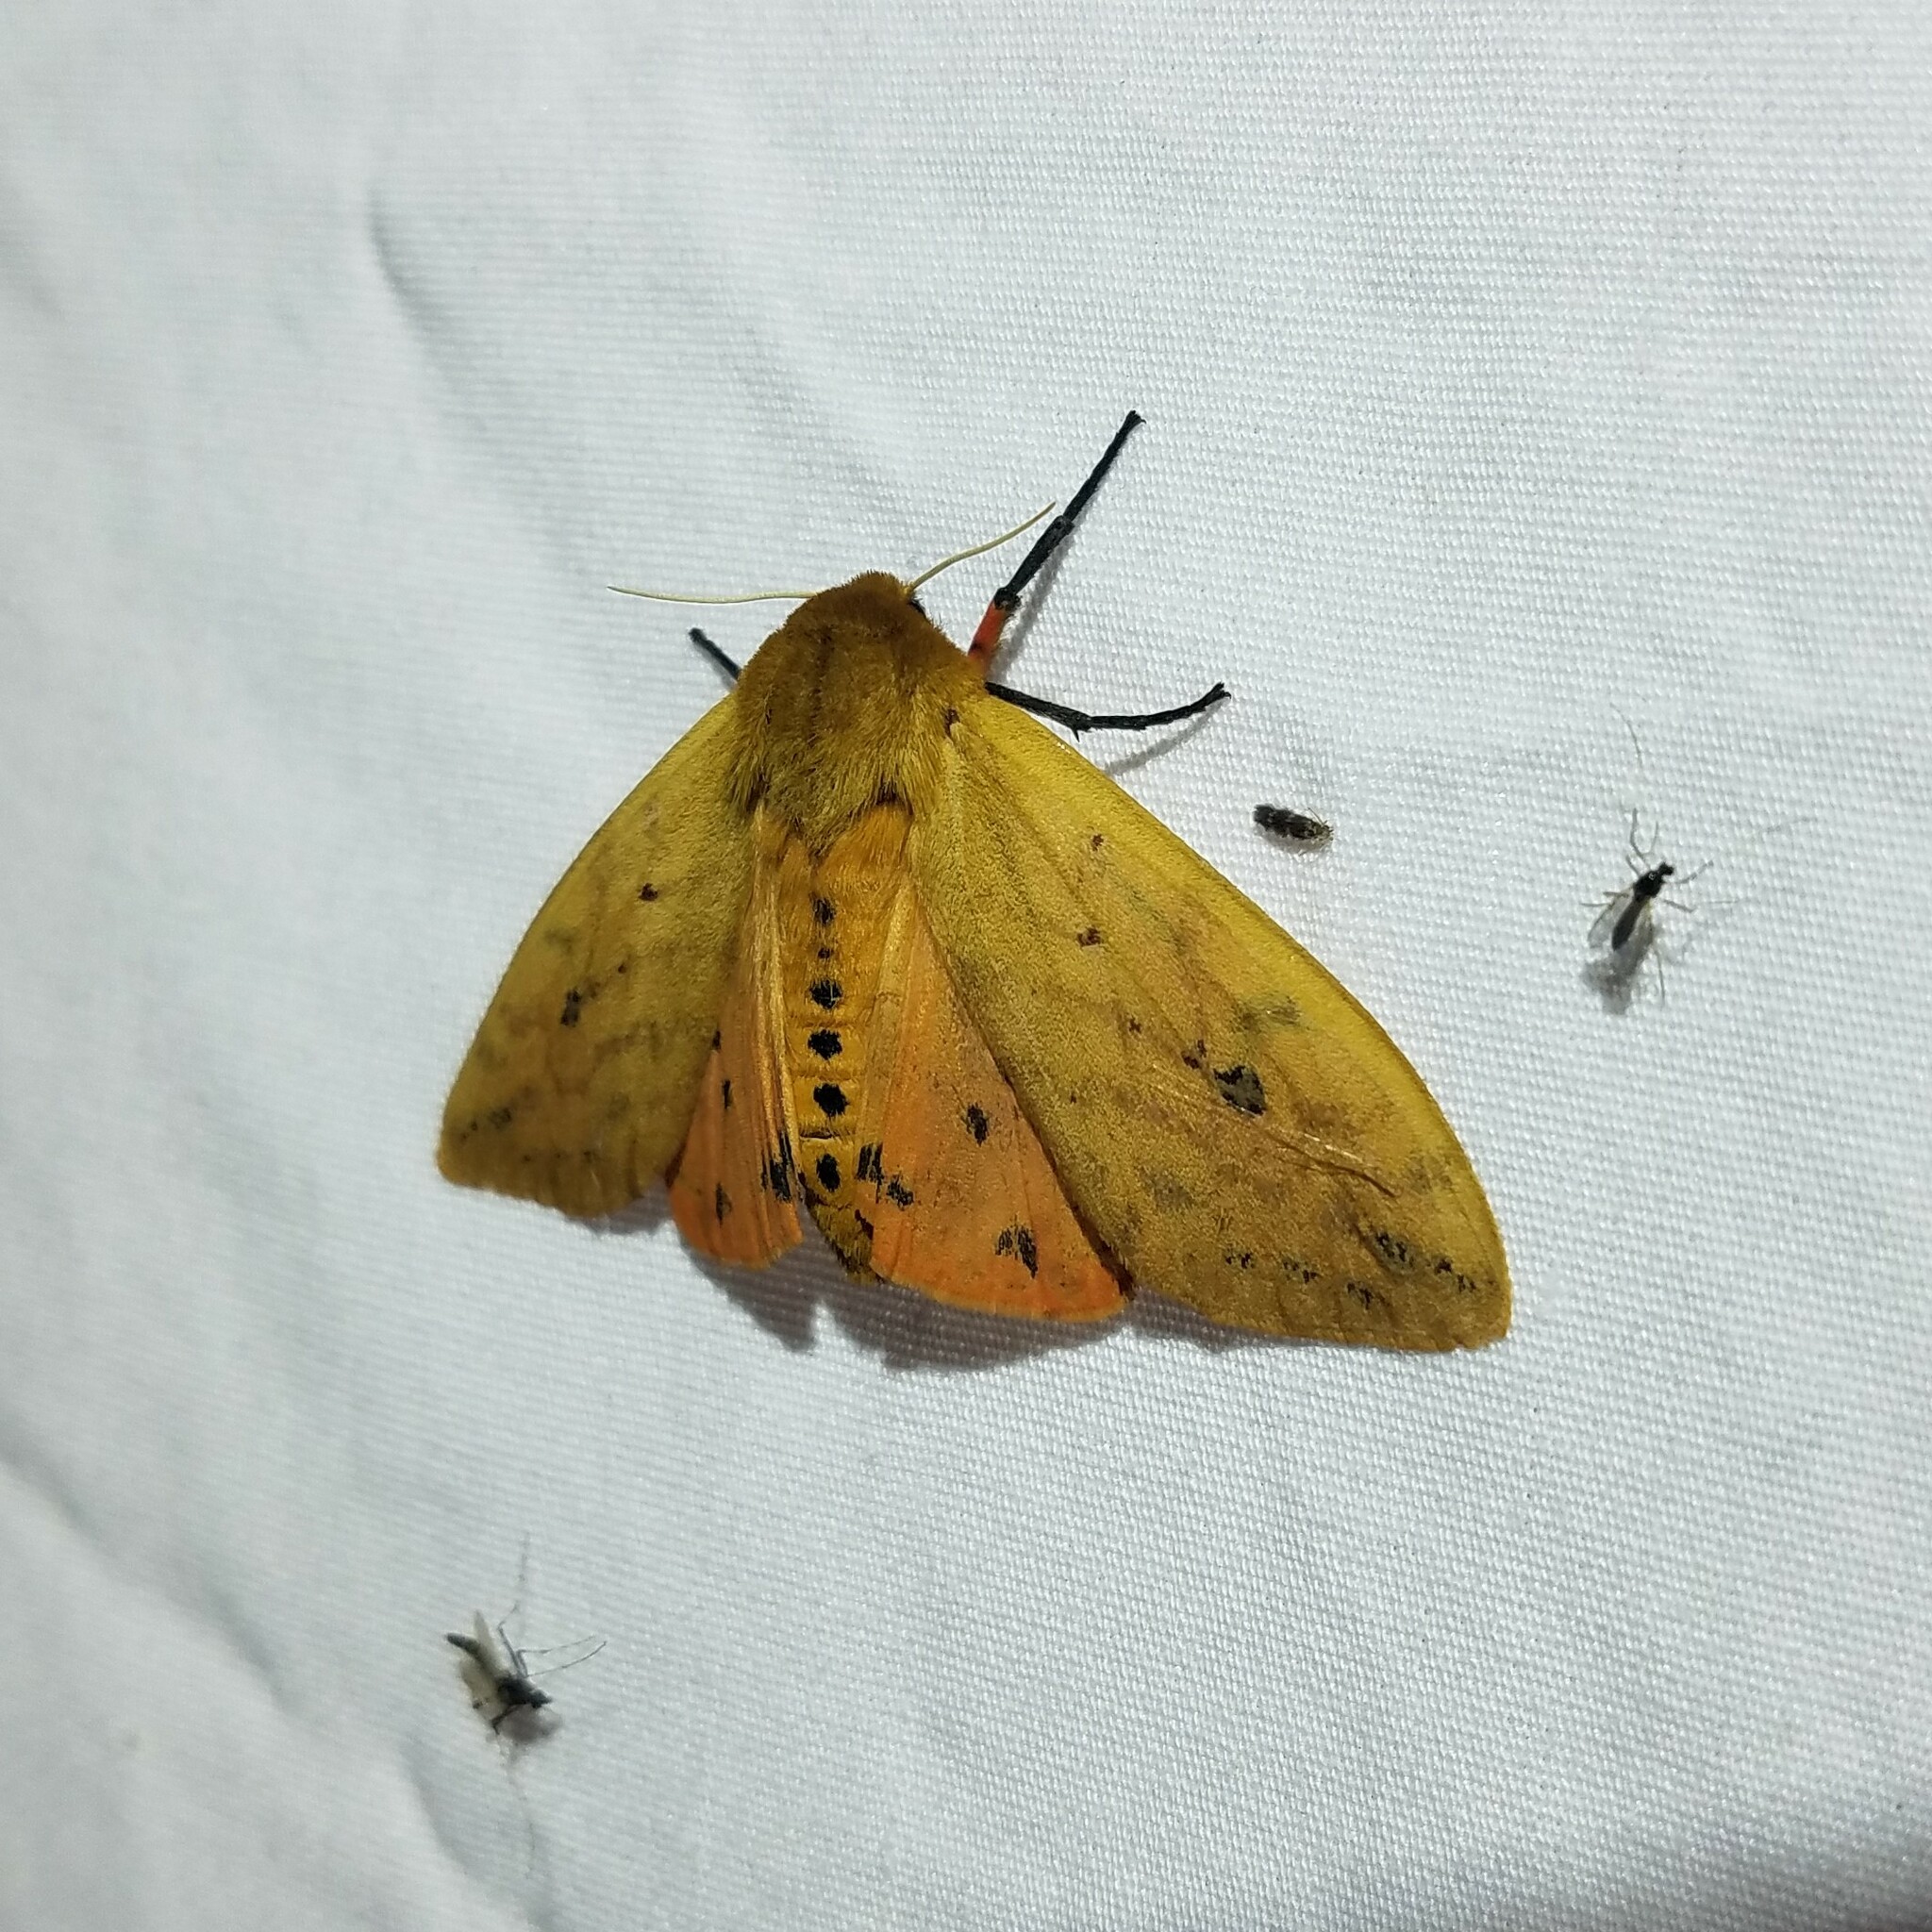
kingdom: Animalia
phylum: Arthropoda
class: Insecta
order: Lepidoptera
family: Erebidae
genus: Pyrrharctia
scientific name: Pyrrharctia isabella
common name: Isabella tiger moth
